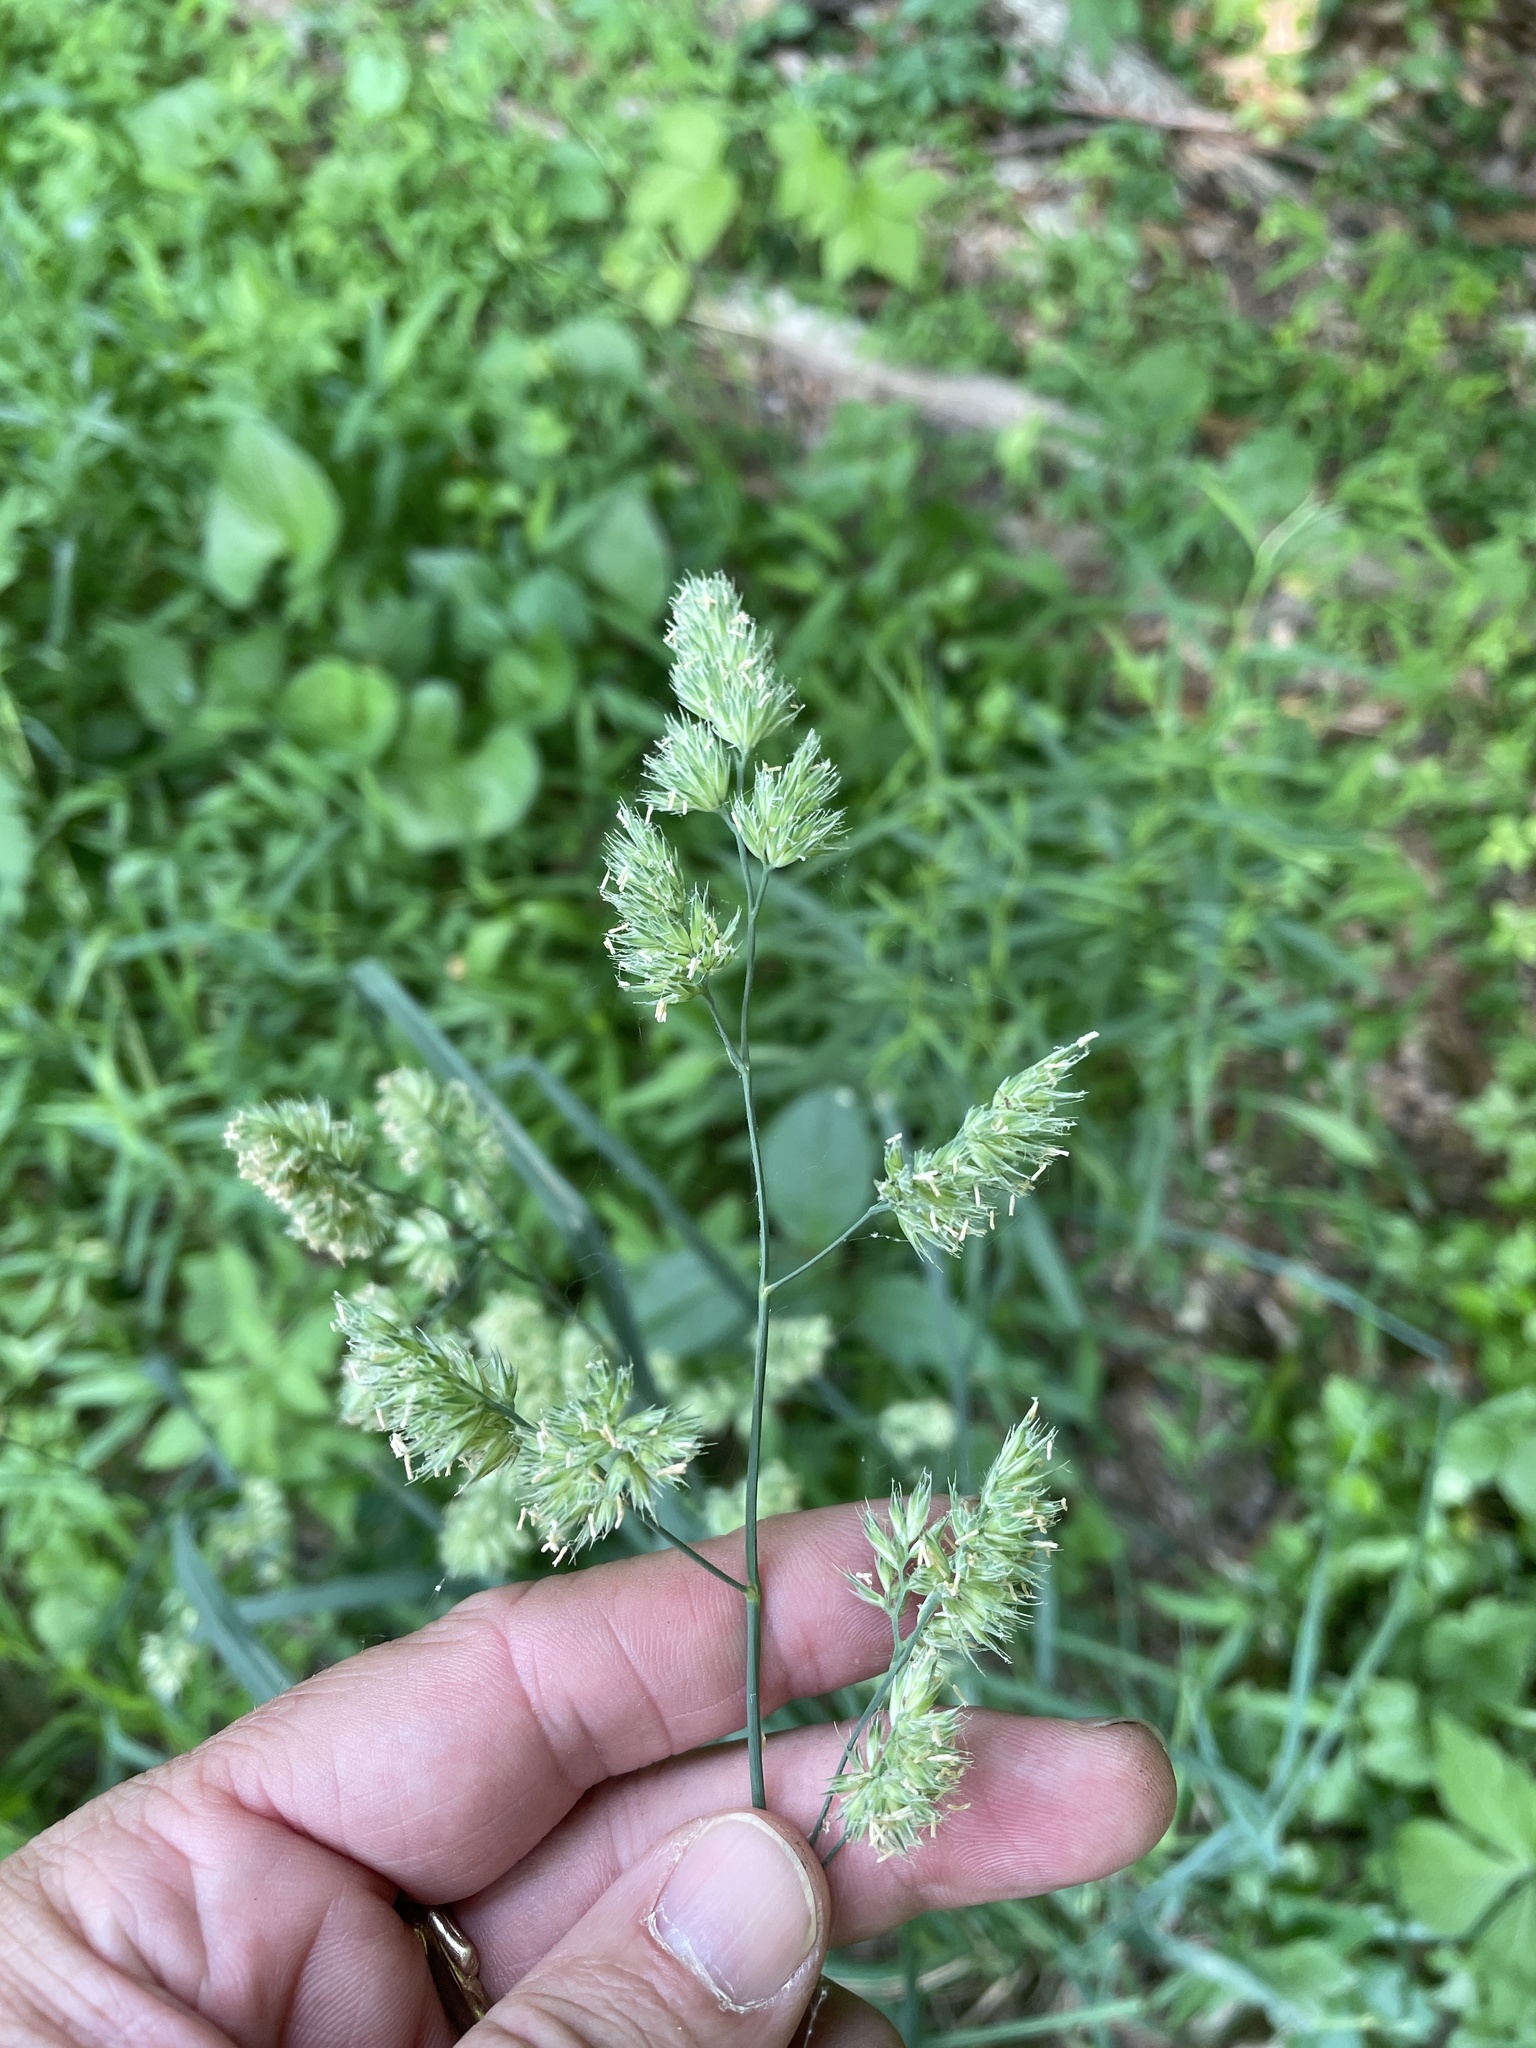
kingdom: Plantae
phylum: Tracheophyta
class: Liliopsida
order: Poales
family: Poaceae
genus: Dactylis
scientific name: Dactylis glomerata
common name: Orchardgrass
